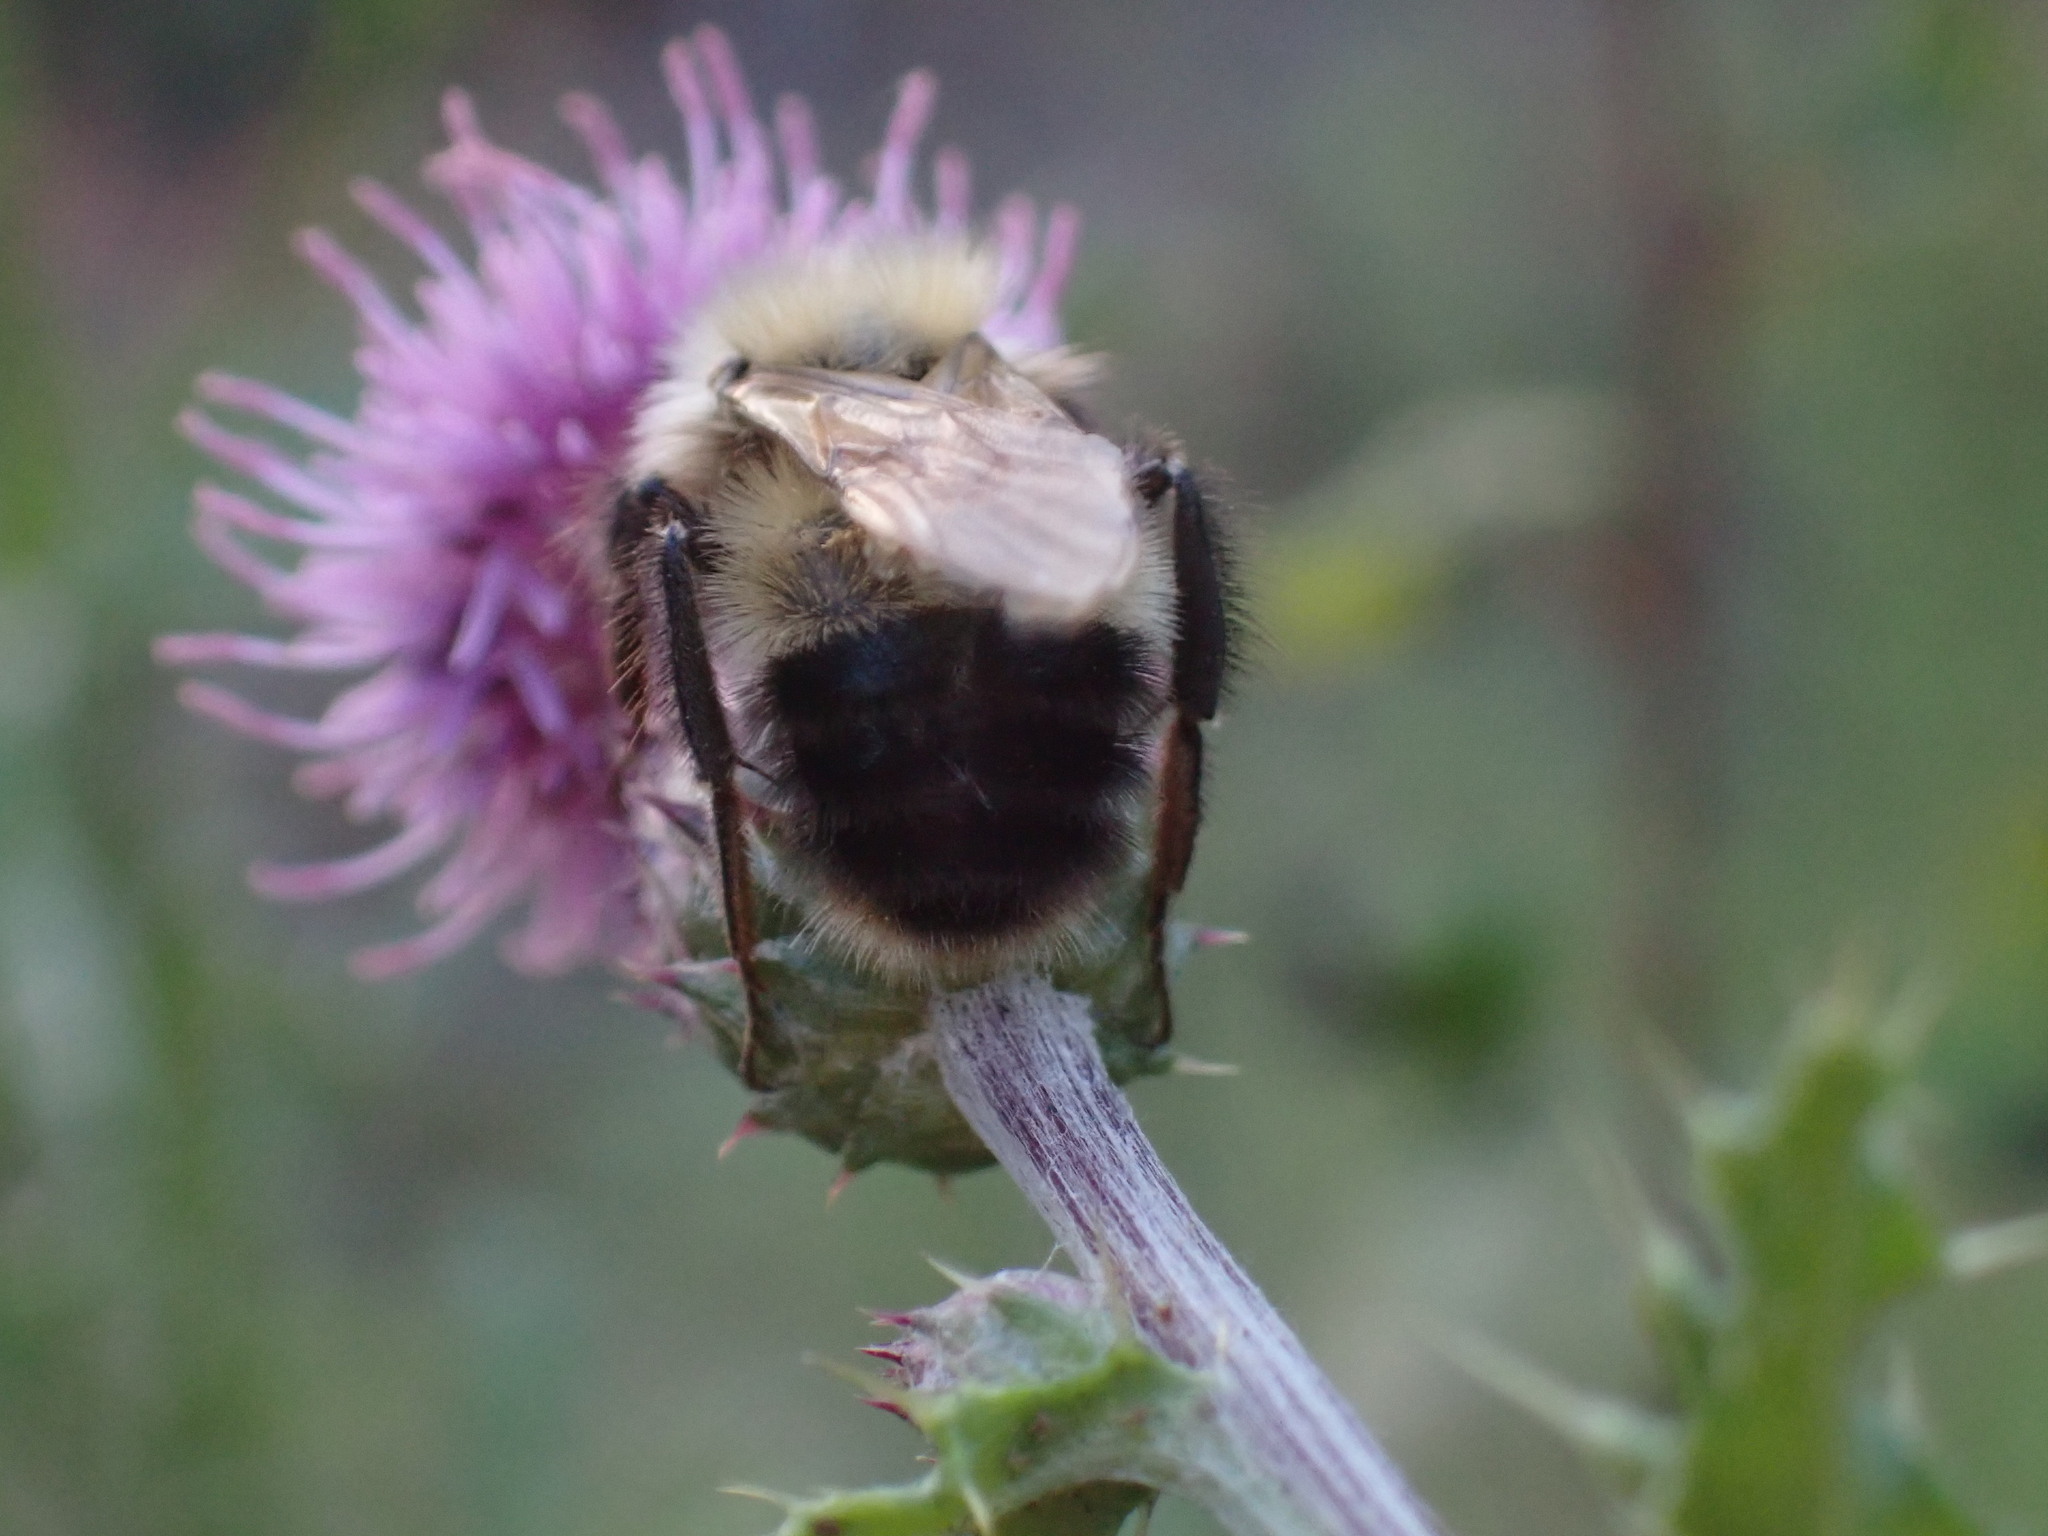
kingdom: Animalia
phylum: Arthropoda
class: Insecta
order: Hymenoptera
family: Apidae
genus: Bombus
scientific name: Bombus perplexus
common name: Confusing bumble bee
